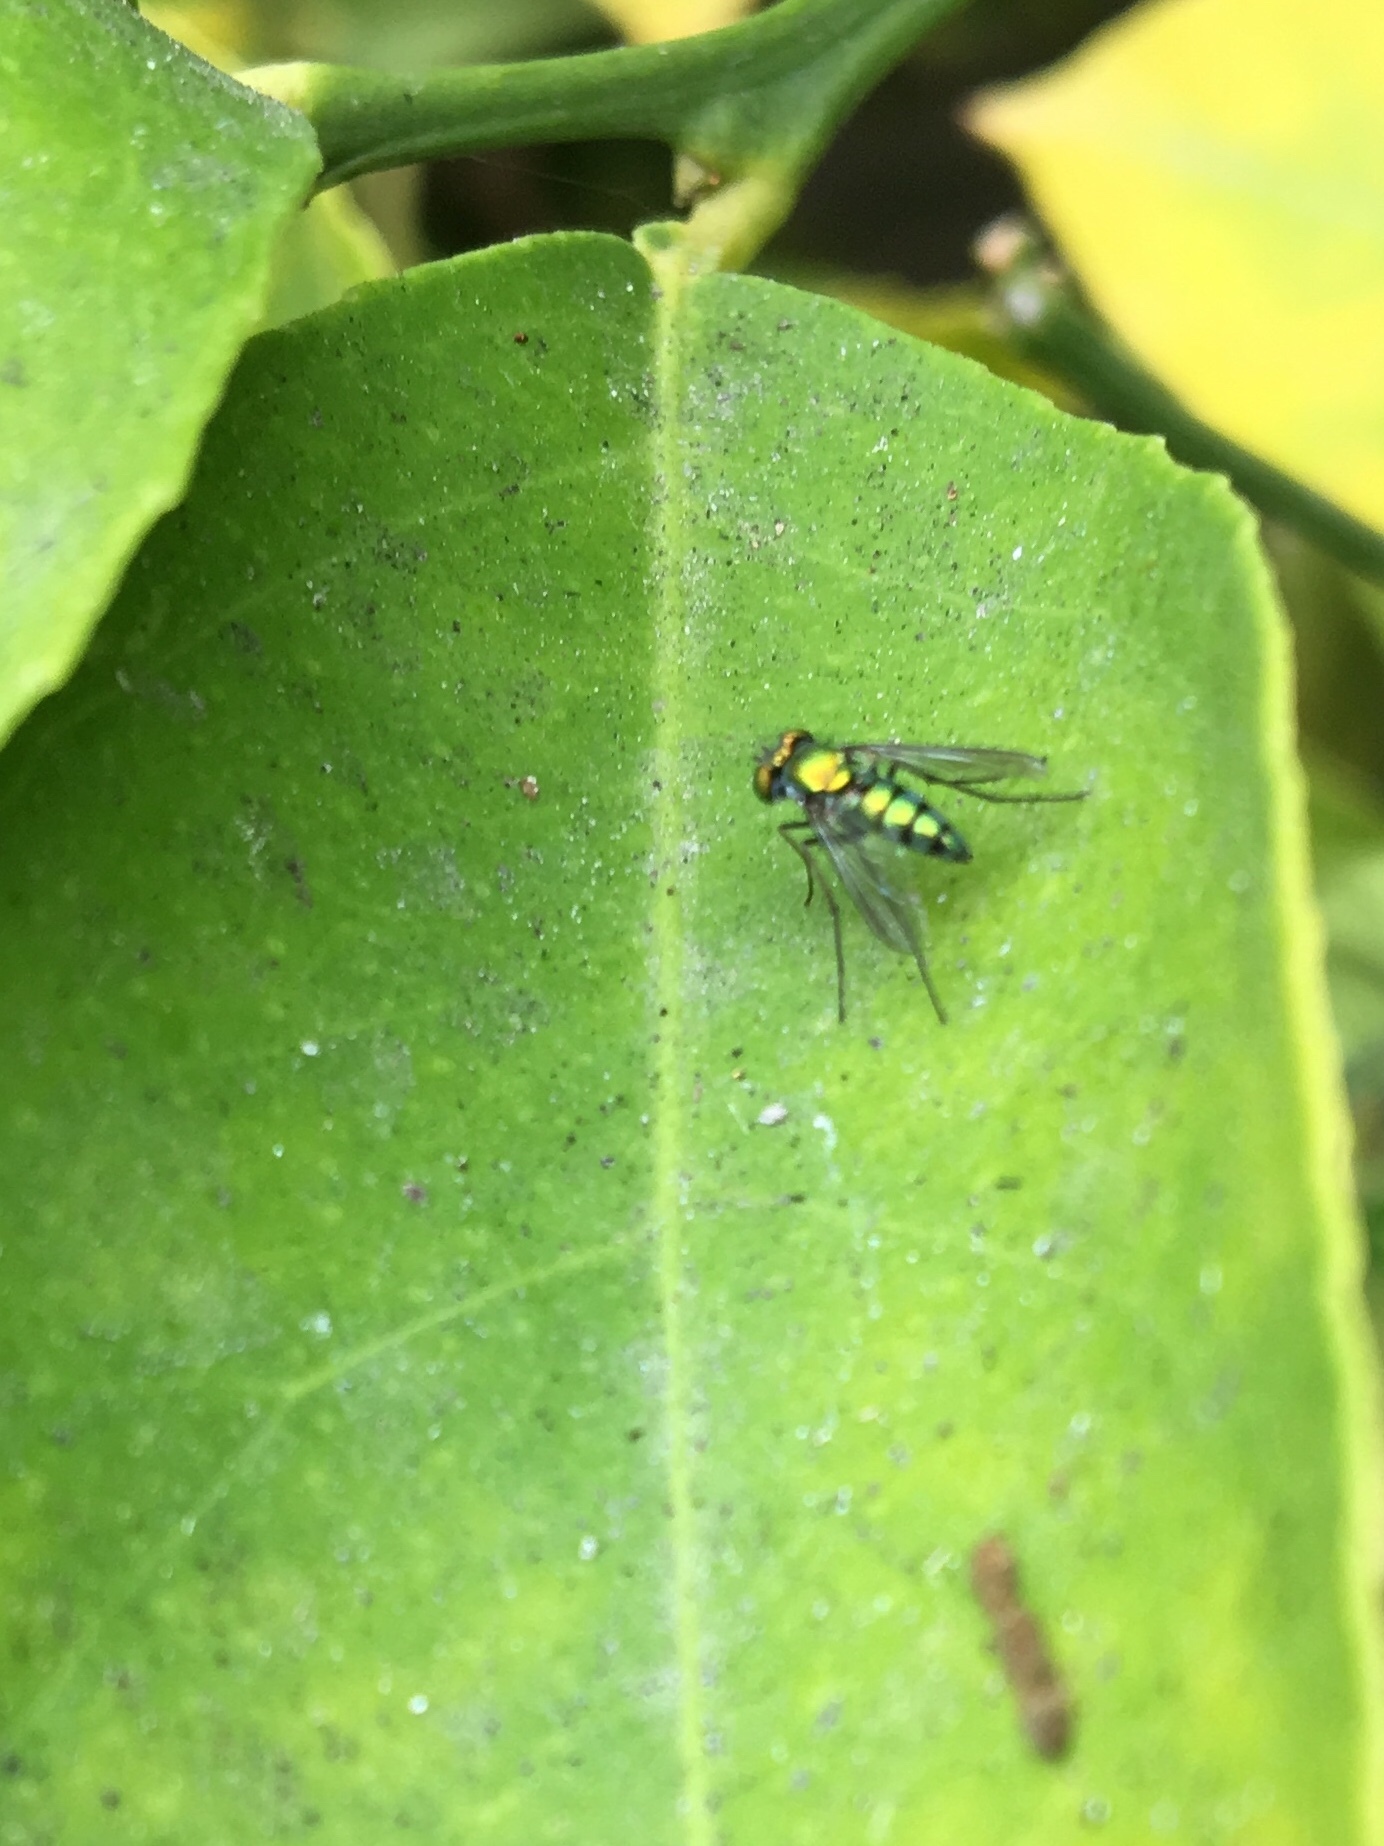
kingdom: Animalia
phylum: Arthropoda
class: Insecta
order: Diptera
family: Dolichopodidae
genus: Condylostylus
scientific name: Condylostylus longicornis
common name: Long-legged fly
